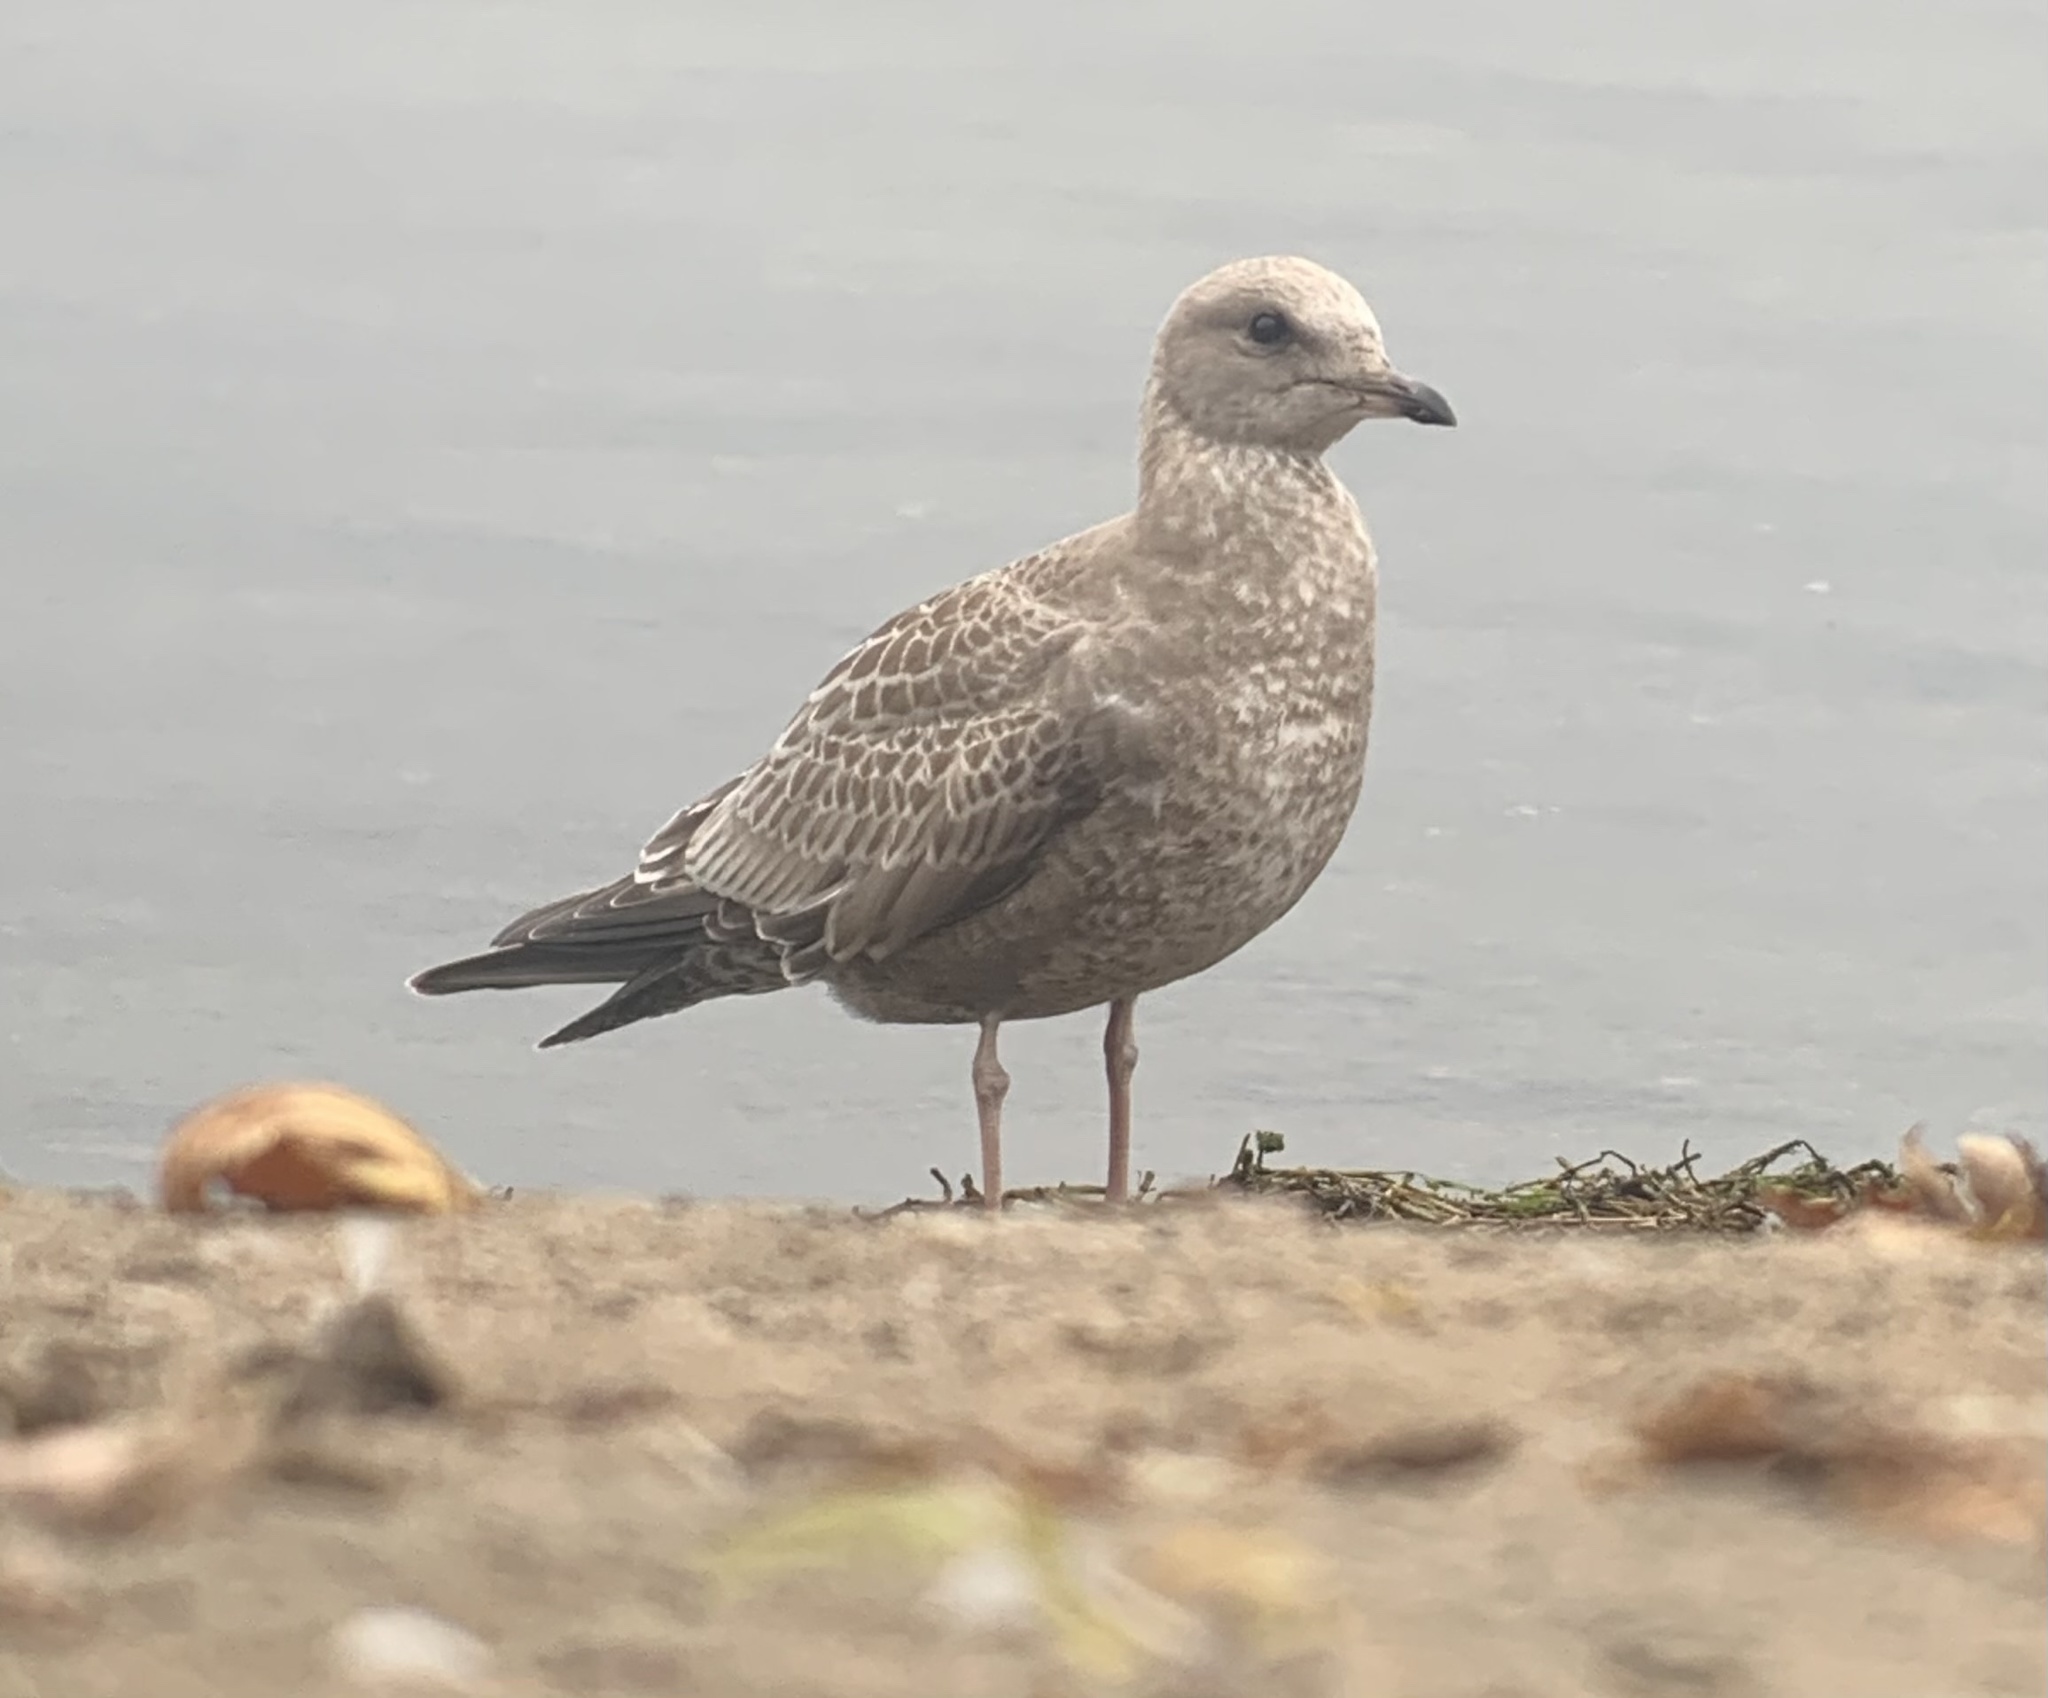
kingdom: Animalia
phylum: Chordata
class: Aves
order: Charadriiformes
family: Laridae
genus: Larus
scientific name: Larus brachyrhynchus
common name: Short-billed gull
